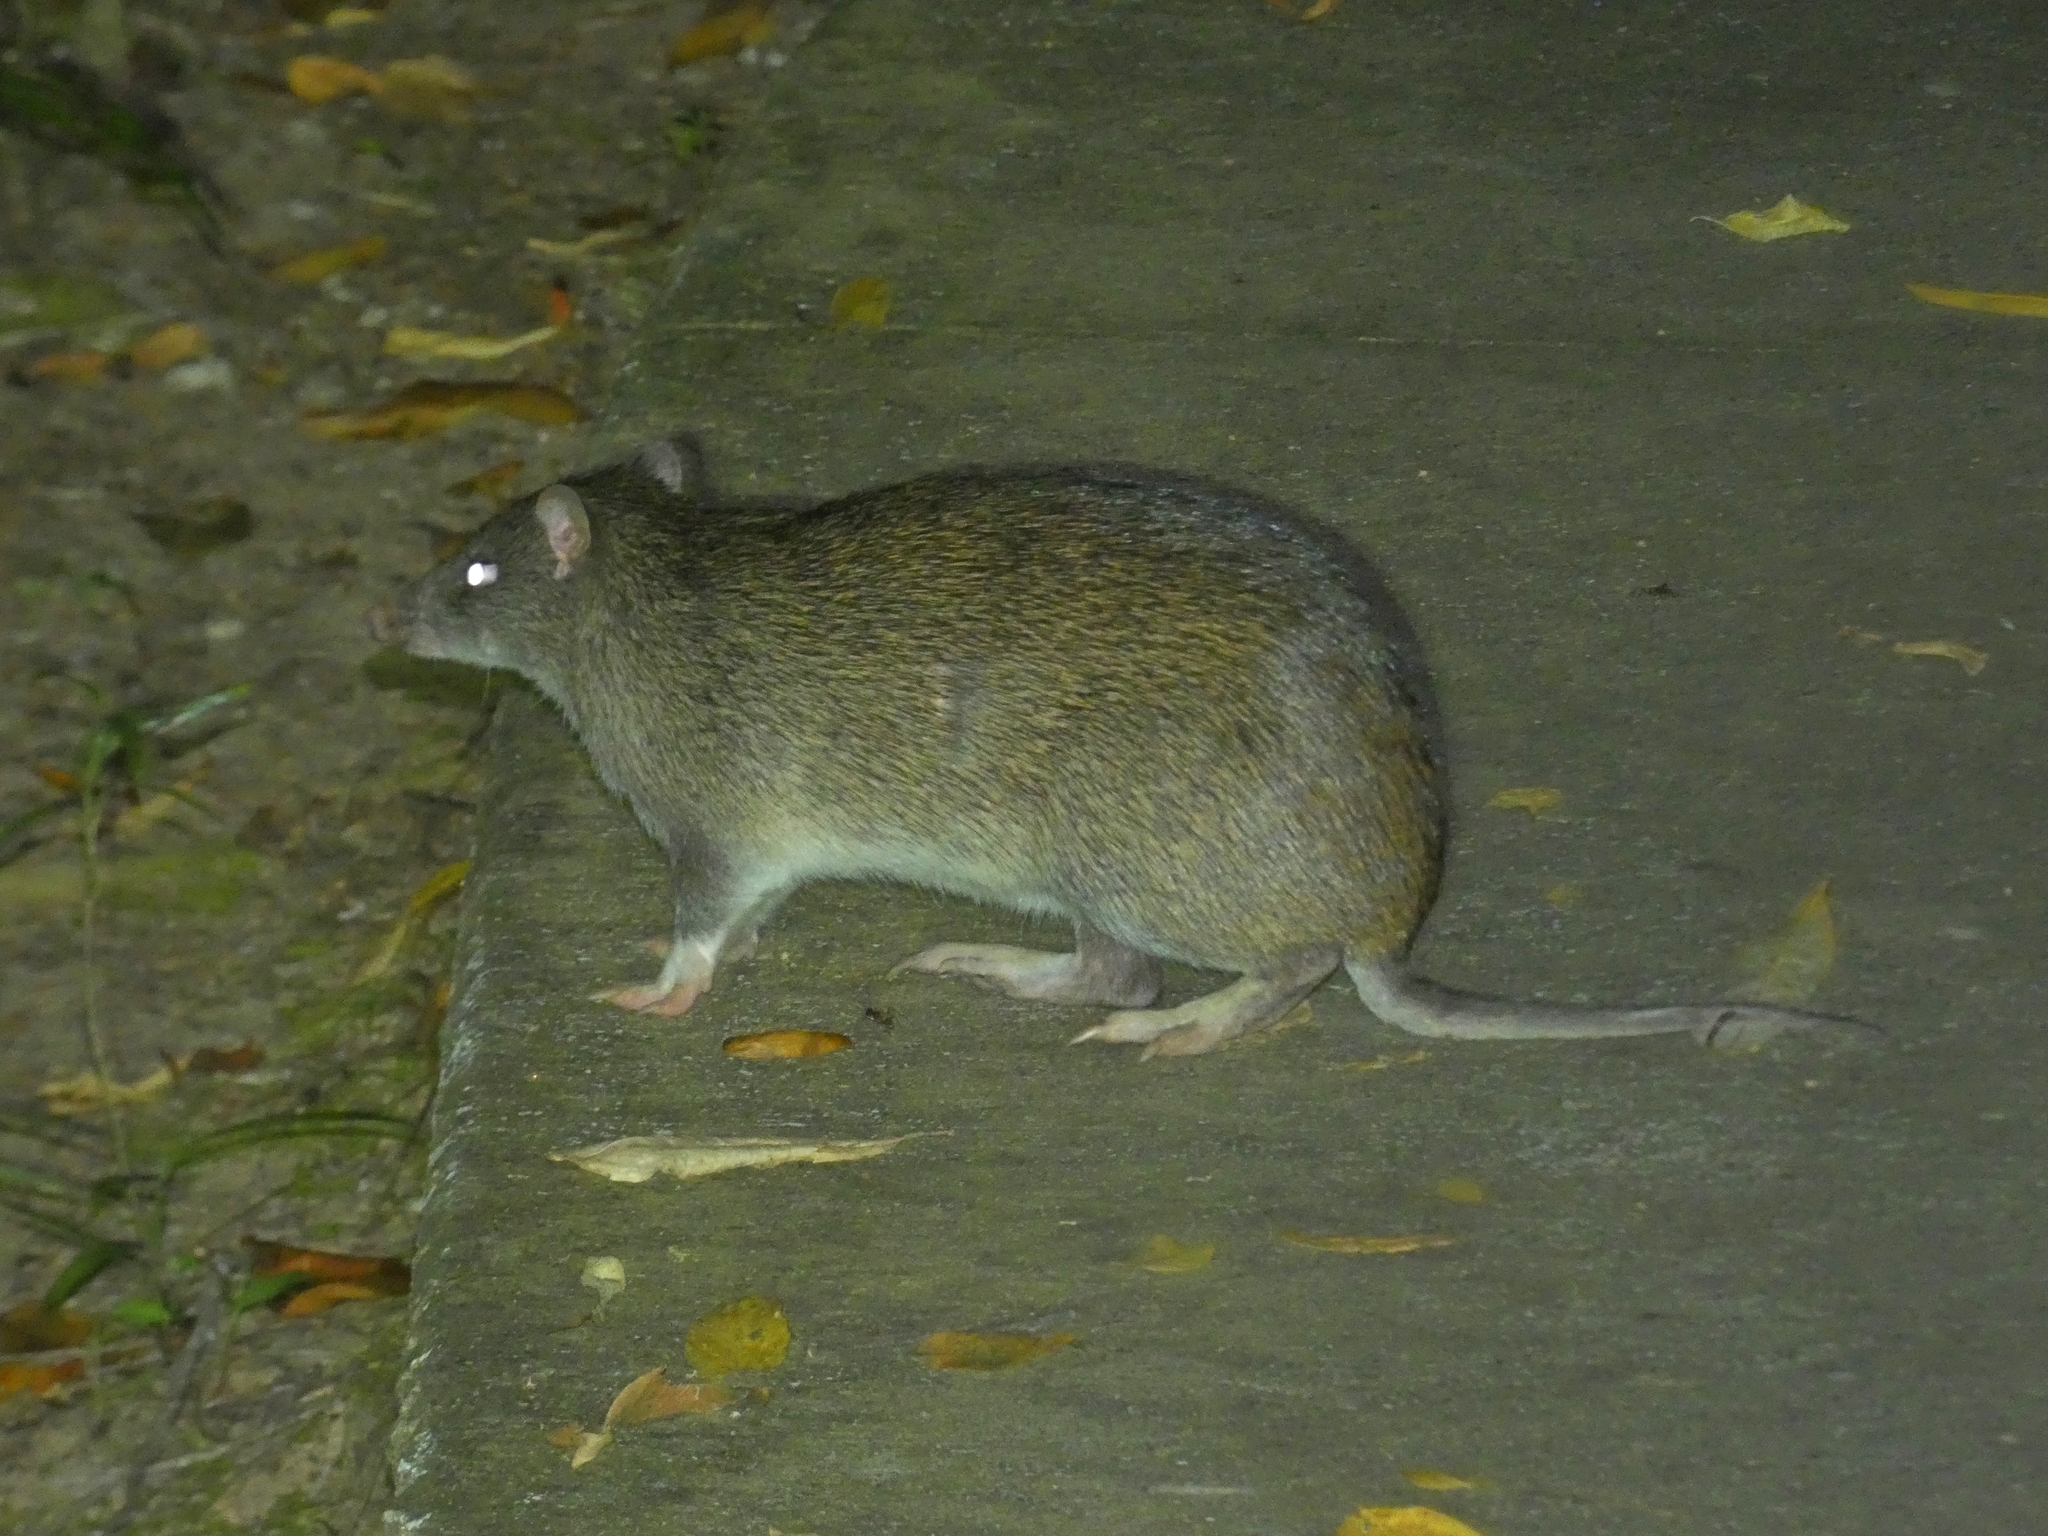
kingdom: Animalia
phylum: Chordata
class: Mammalia
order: Peramelemorphia
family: Peramelidae
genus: Isoodon
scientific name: Isoodon macrourus
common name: Northern brown bandicoot
